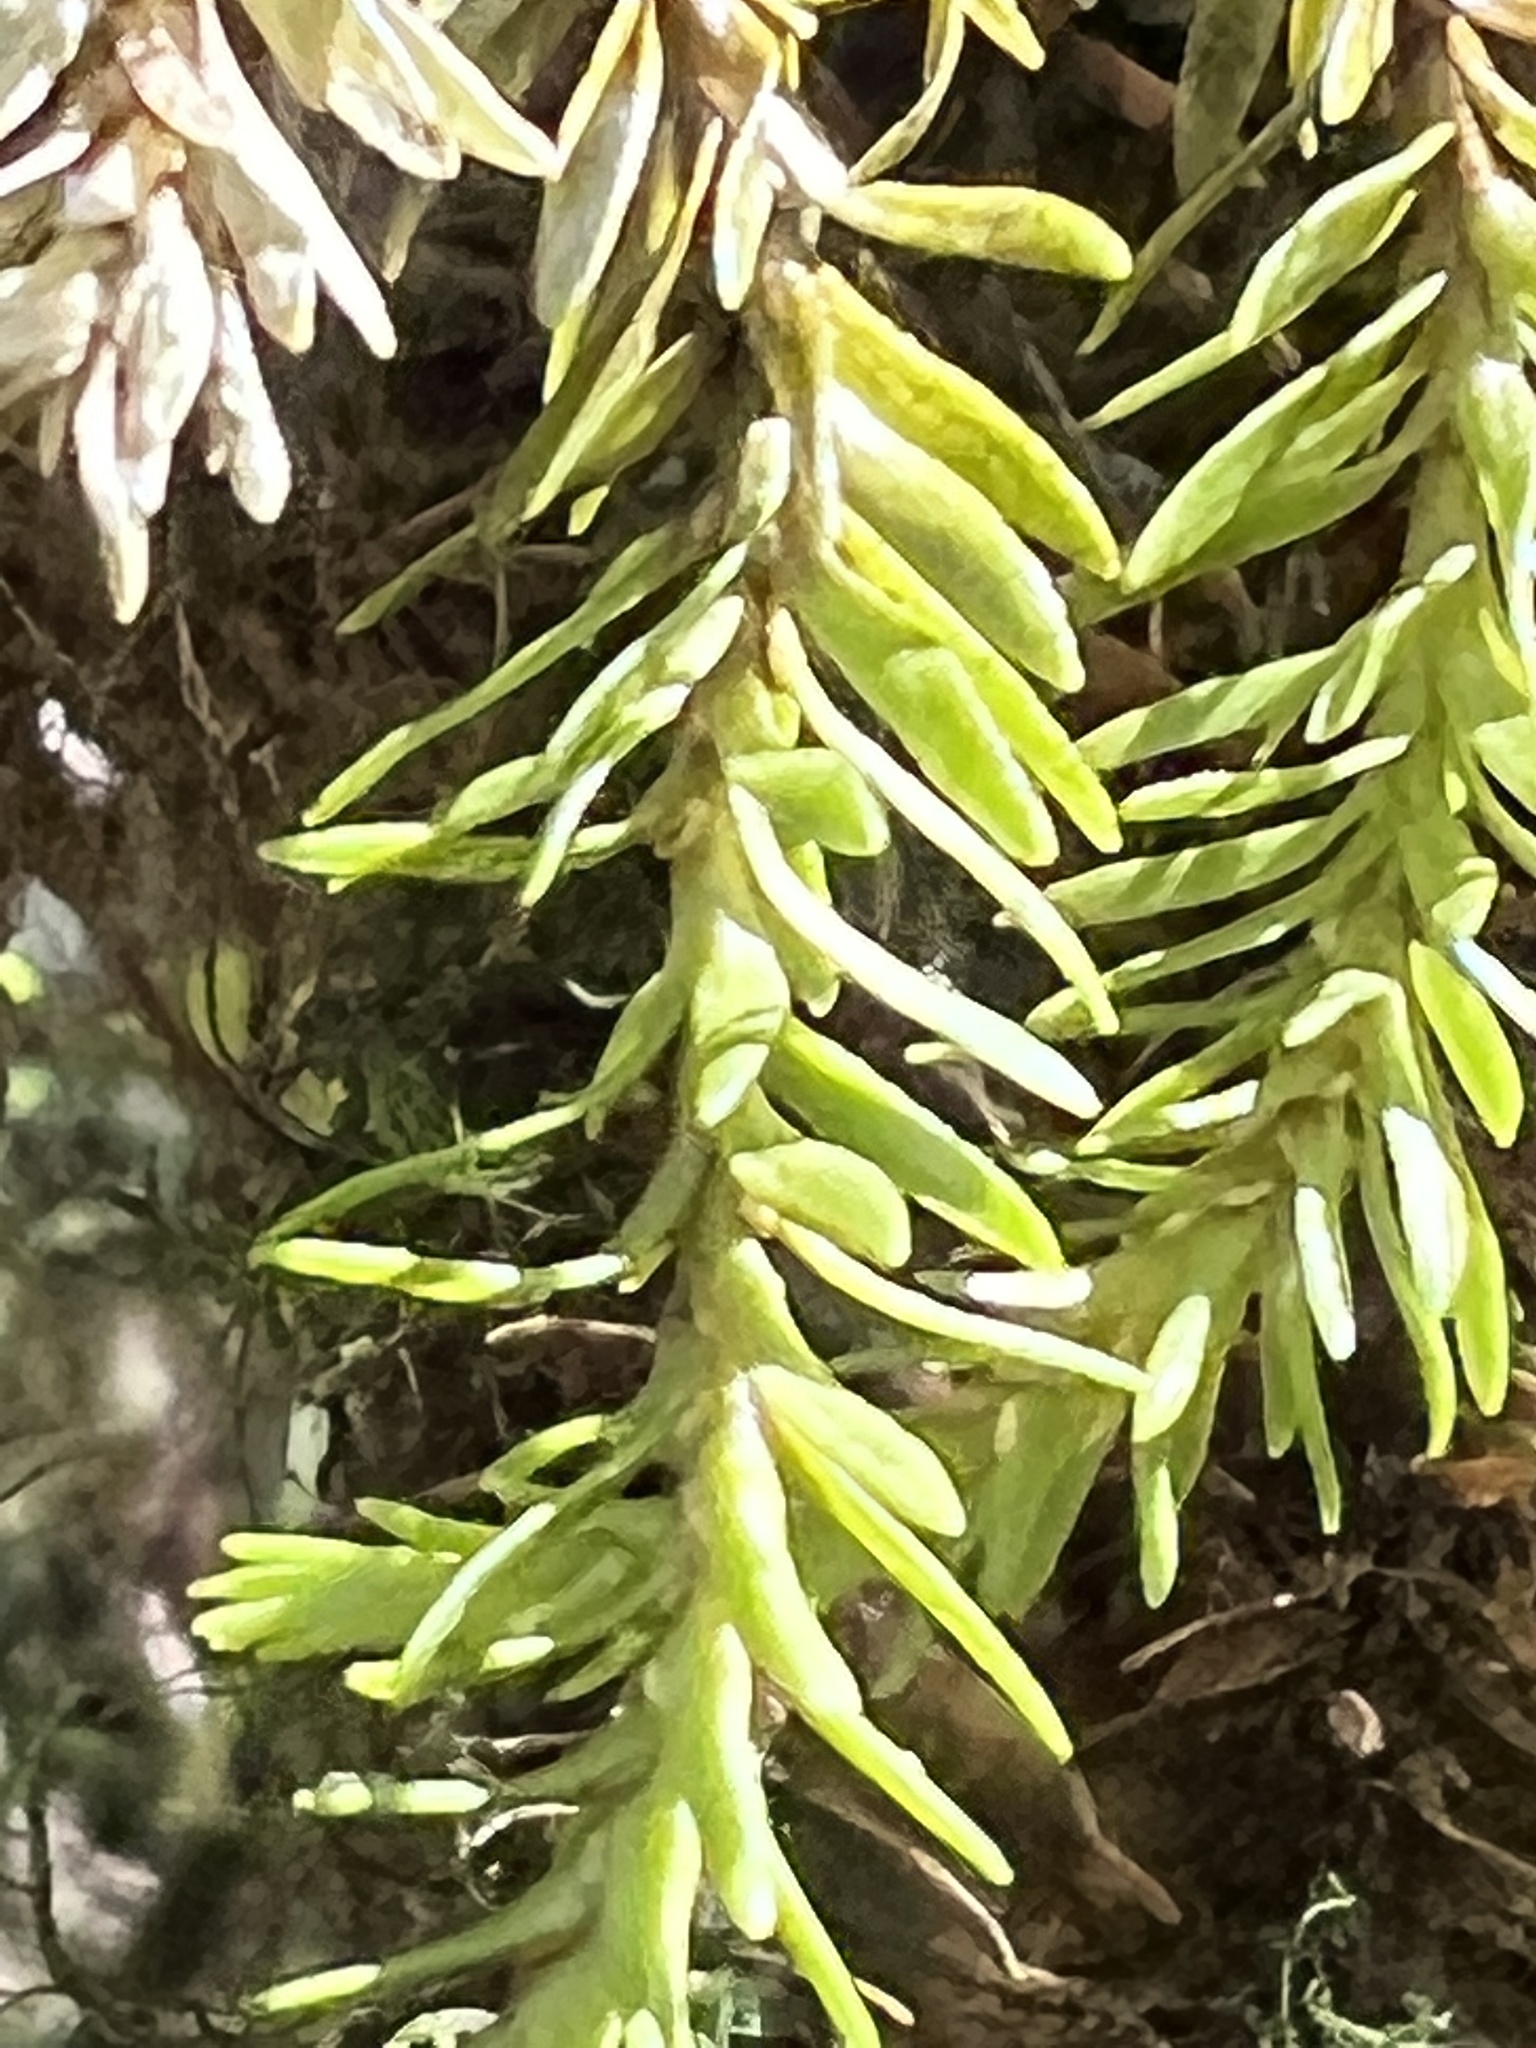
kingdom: Plantae
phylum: Tracheophyta
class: Lycopodiopsida
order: Lycopodiales
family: Lycopodiaceae
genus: Phlegmariurus
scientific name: Phlegmariurus varius
